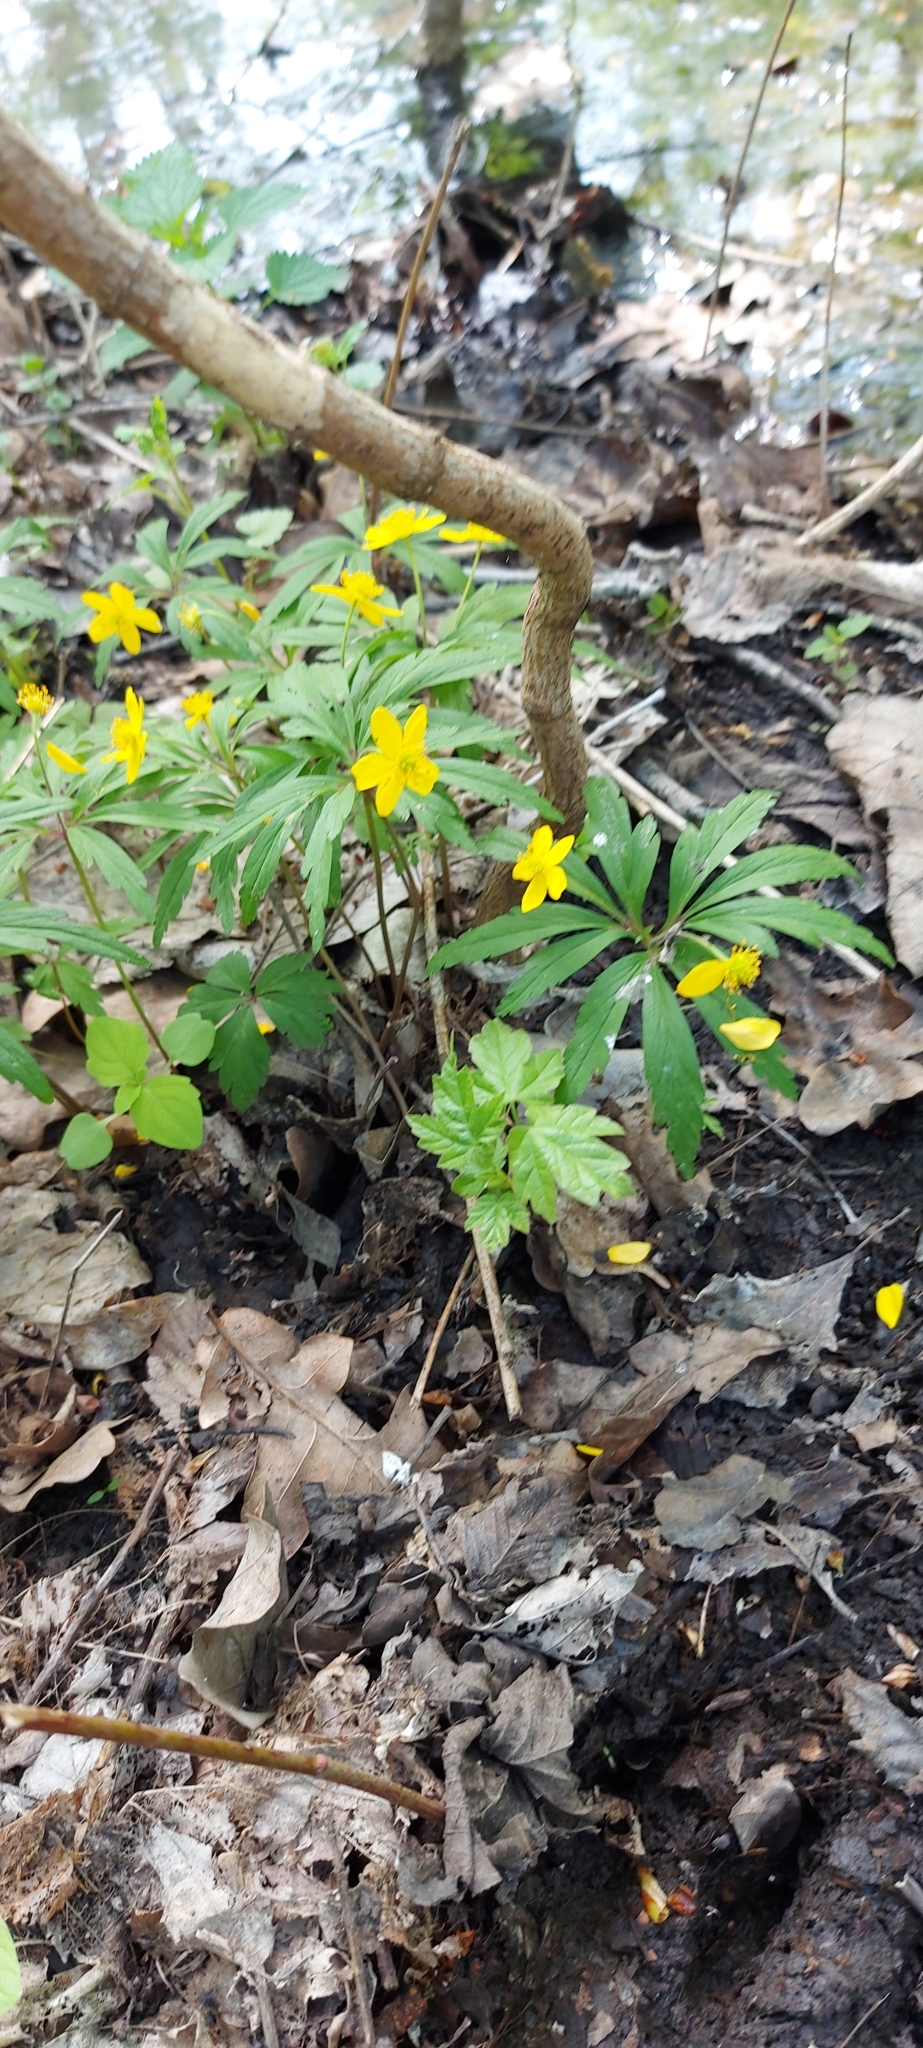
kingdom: Plantae
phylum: Tracheophyta
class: Magnoliopsida
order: Ranunculales
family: Ranunculaceae
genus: Anemone
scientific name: Anemone ranunculoides
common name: Yellow anemone
